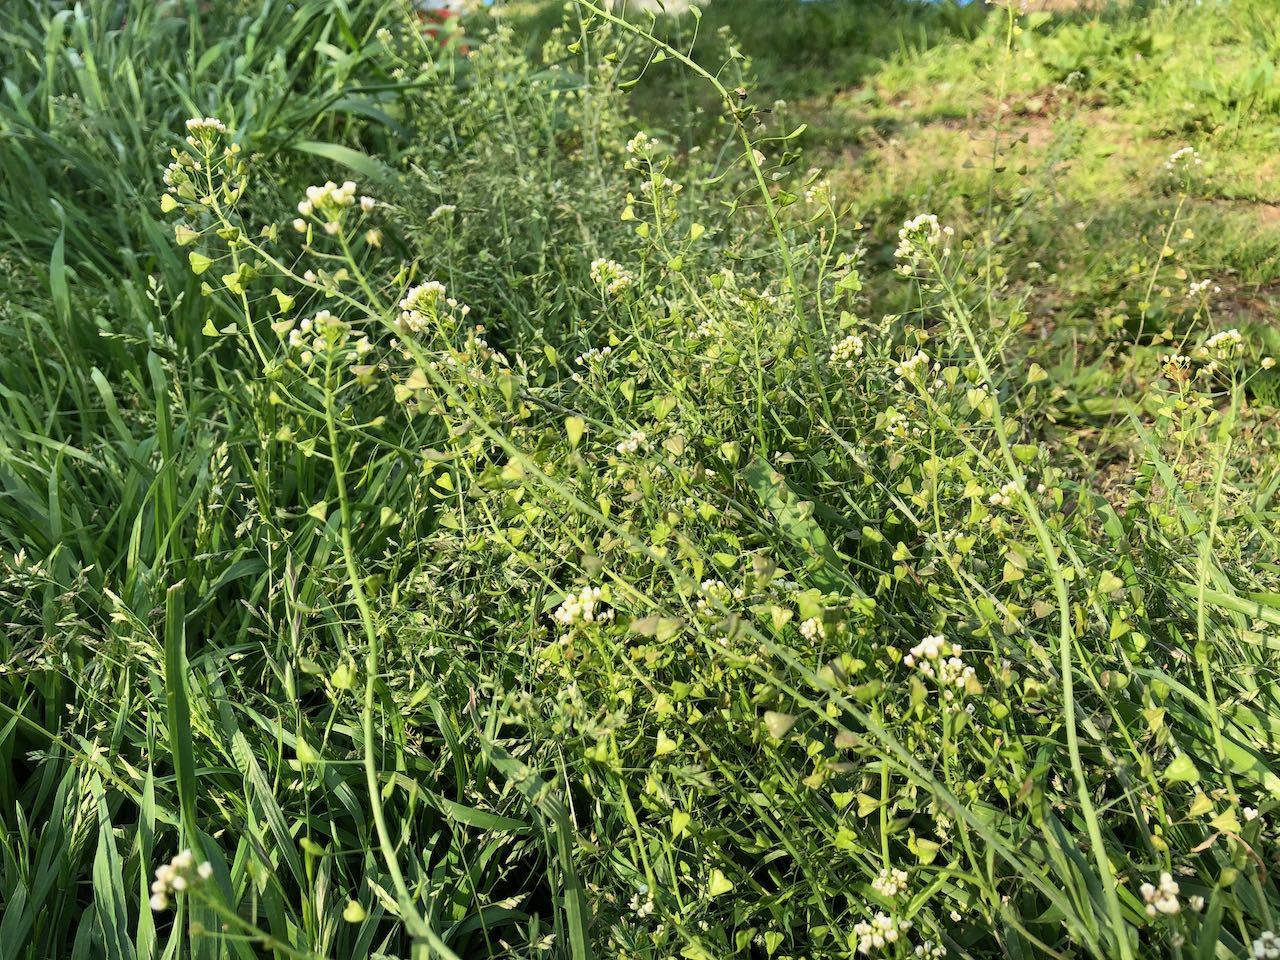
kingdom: Plantae
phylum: Tracheophyta
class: Magnoliopsida
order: Brassicales
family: Brassicaceae
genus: Capsella
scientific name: Capsella bursa-pastoris
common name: Shepherd's purse
